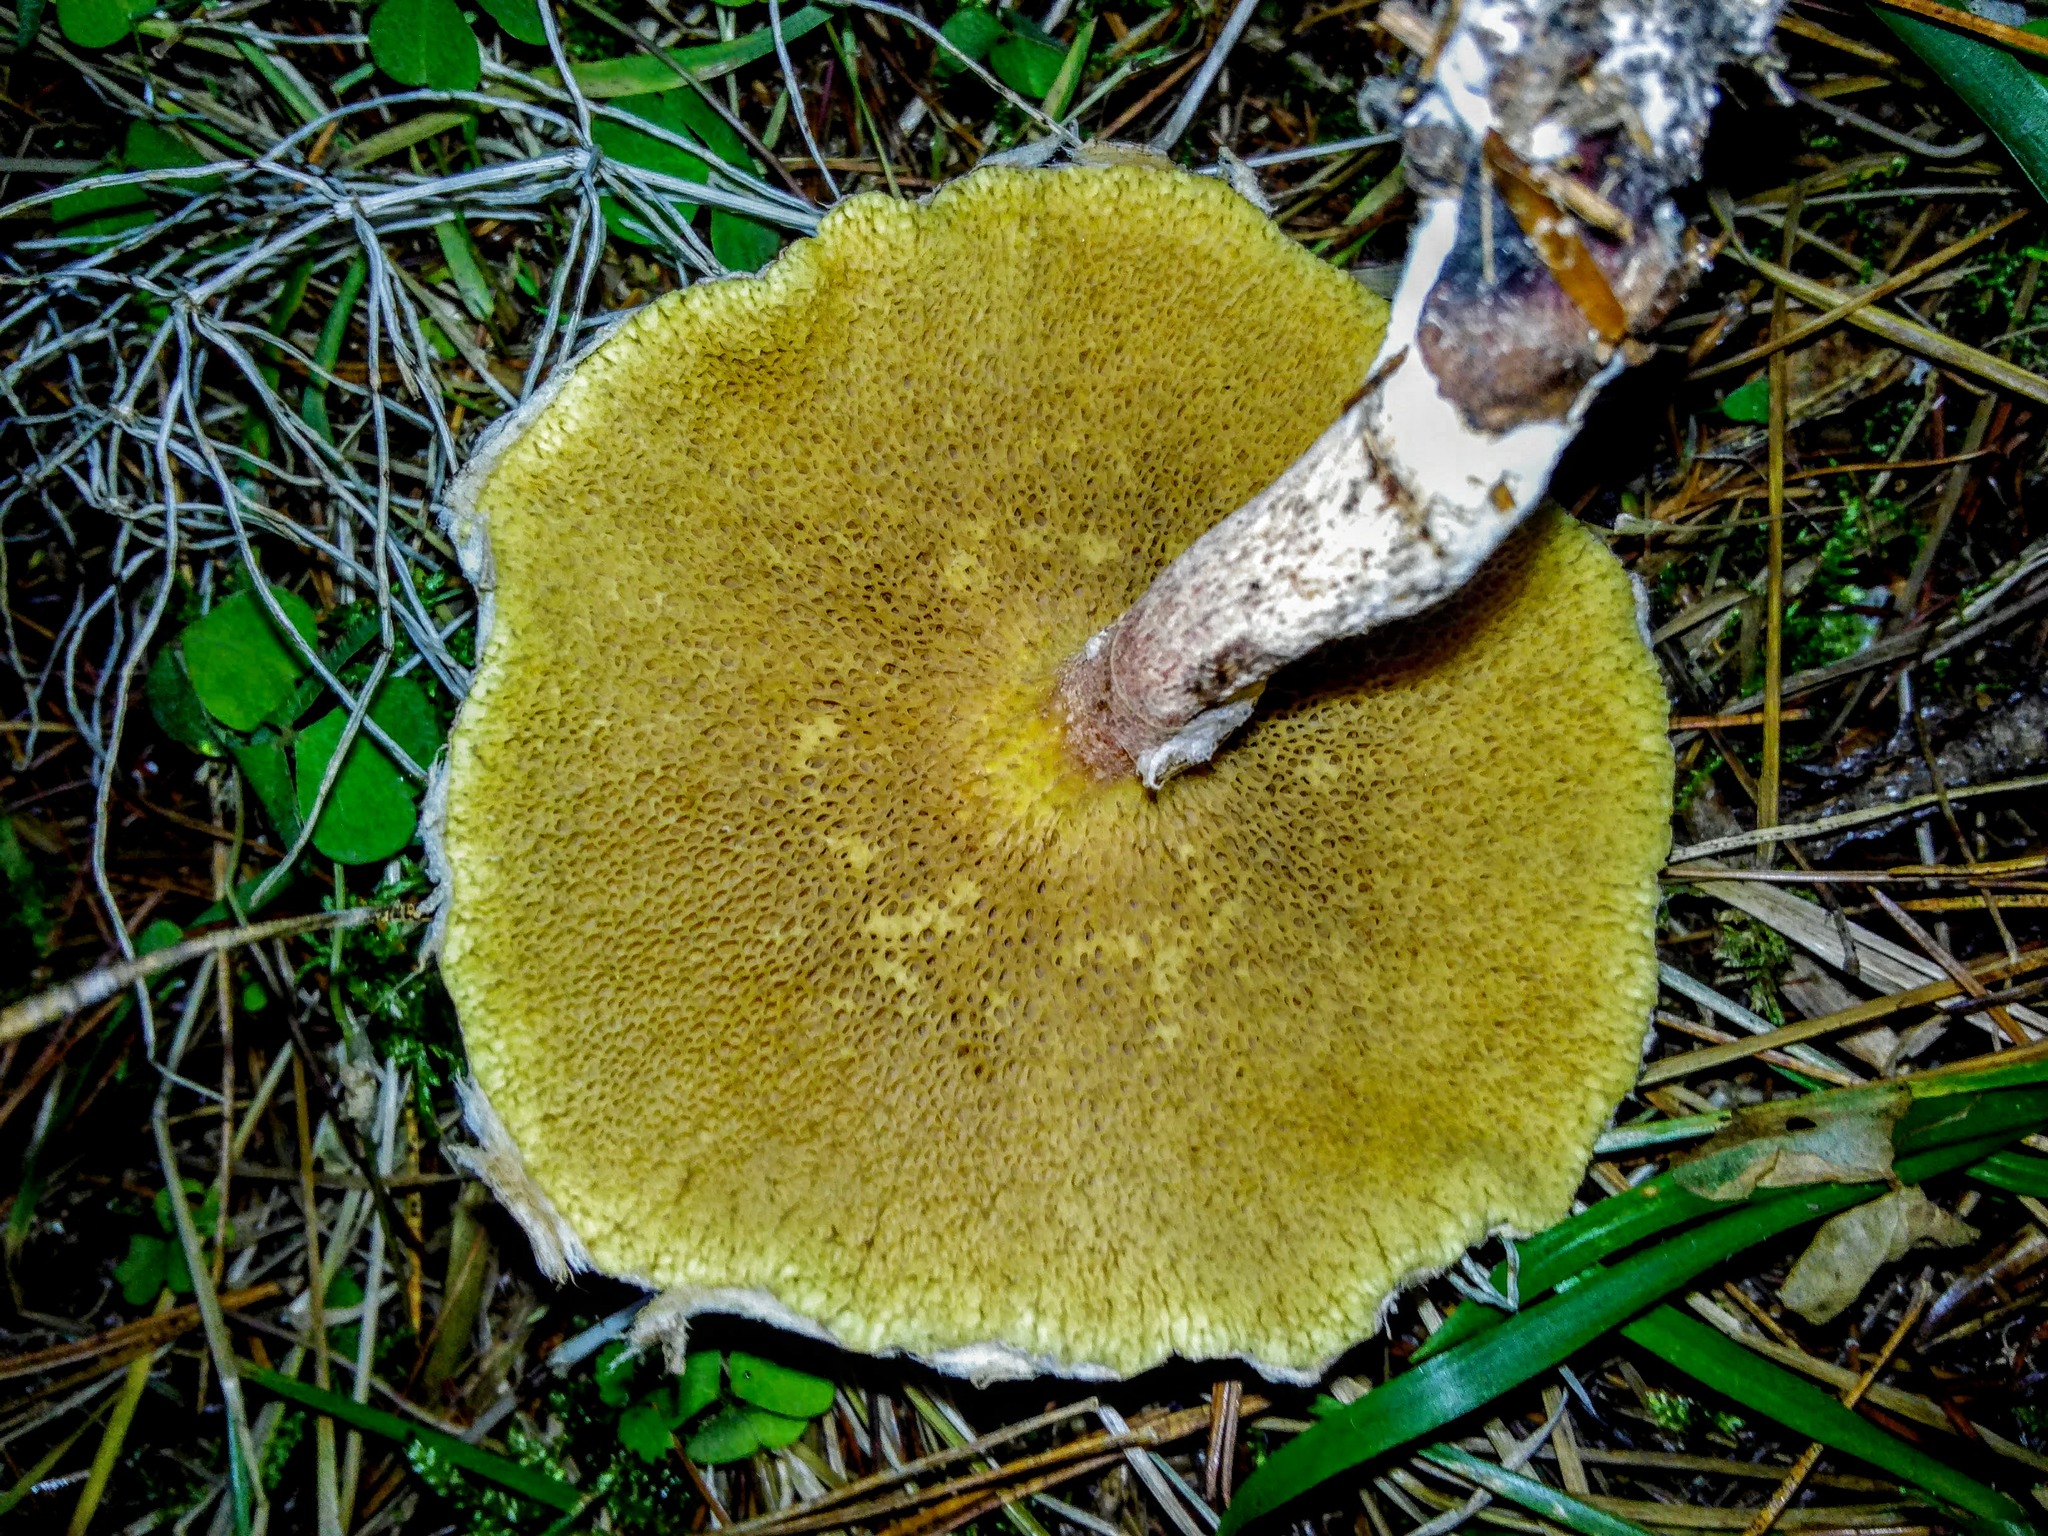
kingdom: Fungi
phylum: Basidiomycota
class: Agaricomycetes
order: Boletales
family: Suillaceae
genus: Suillus
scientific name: Suillus americanus
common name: Chicken fat mushroom
